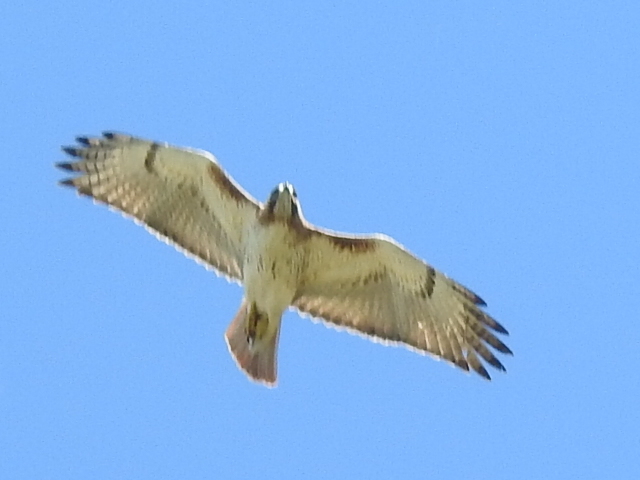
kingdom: Animalia
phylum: Chordata
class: Aves
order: Accipitriformes
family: Accipitridae
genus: Buteo
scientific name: Buteo jamaicensis
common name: Red-tailed hawk
